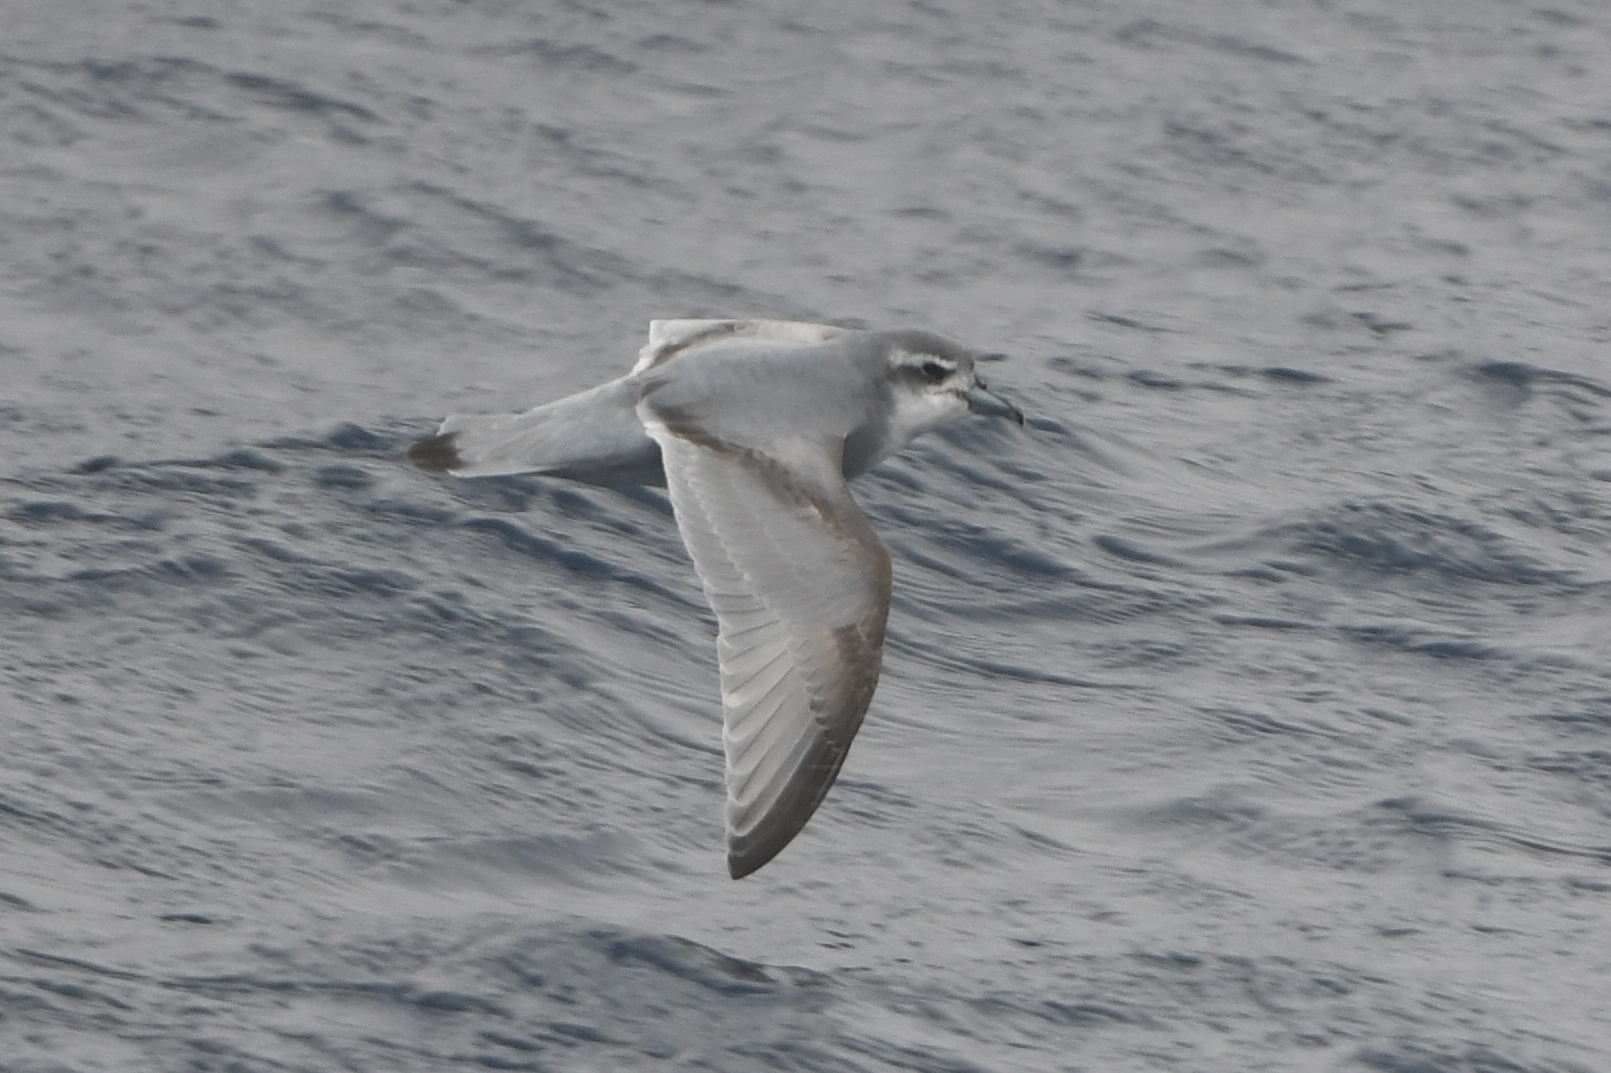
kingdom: Animalia
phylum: Chordata
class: Aves
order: Procellariiformes
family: Procellariidae
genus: Pachyptila
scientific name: Pachyptila desolata
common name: Antarctic prion
